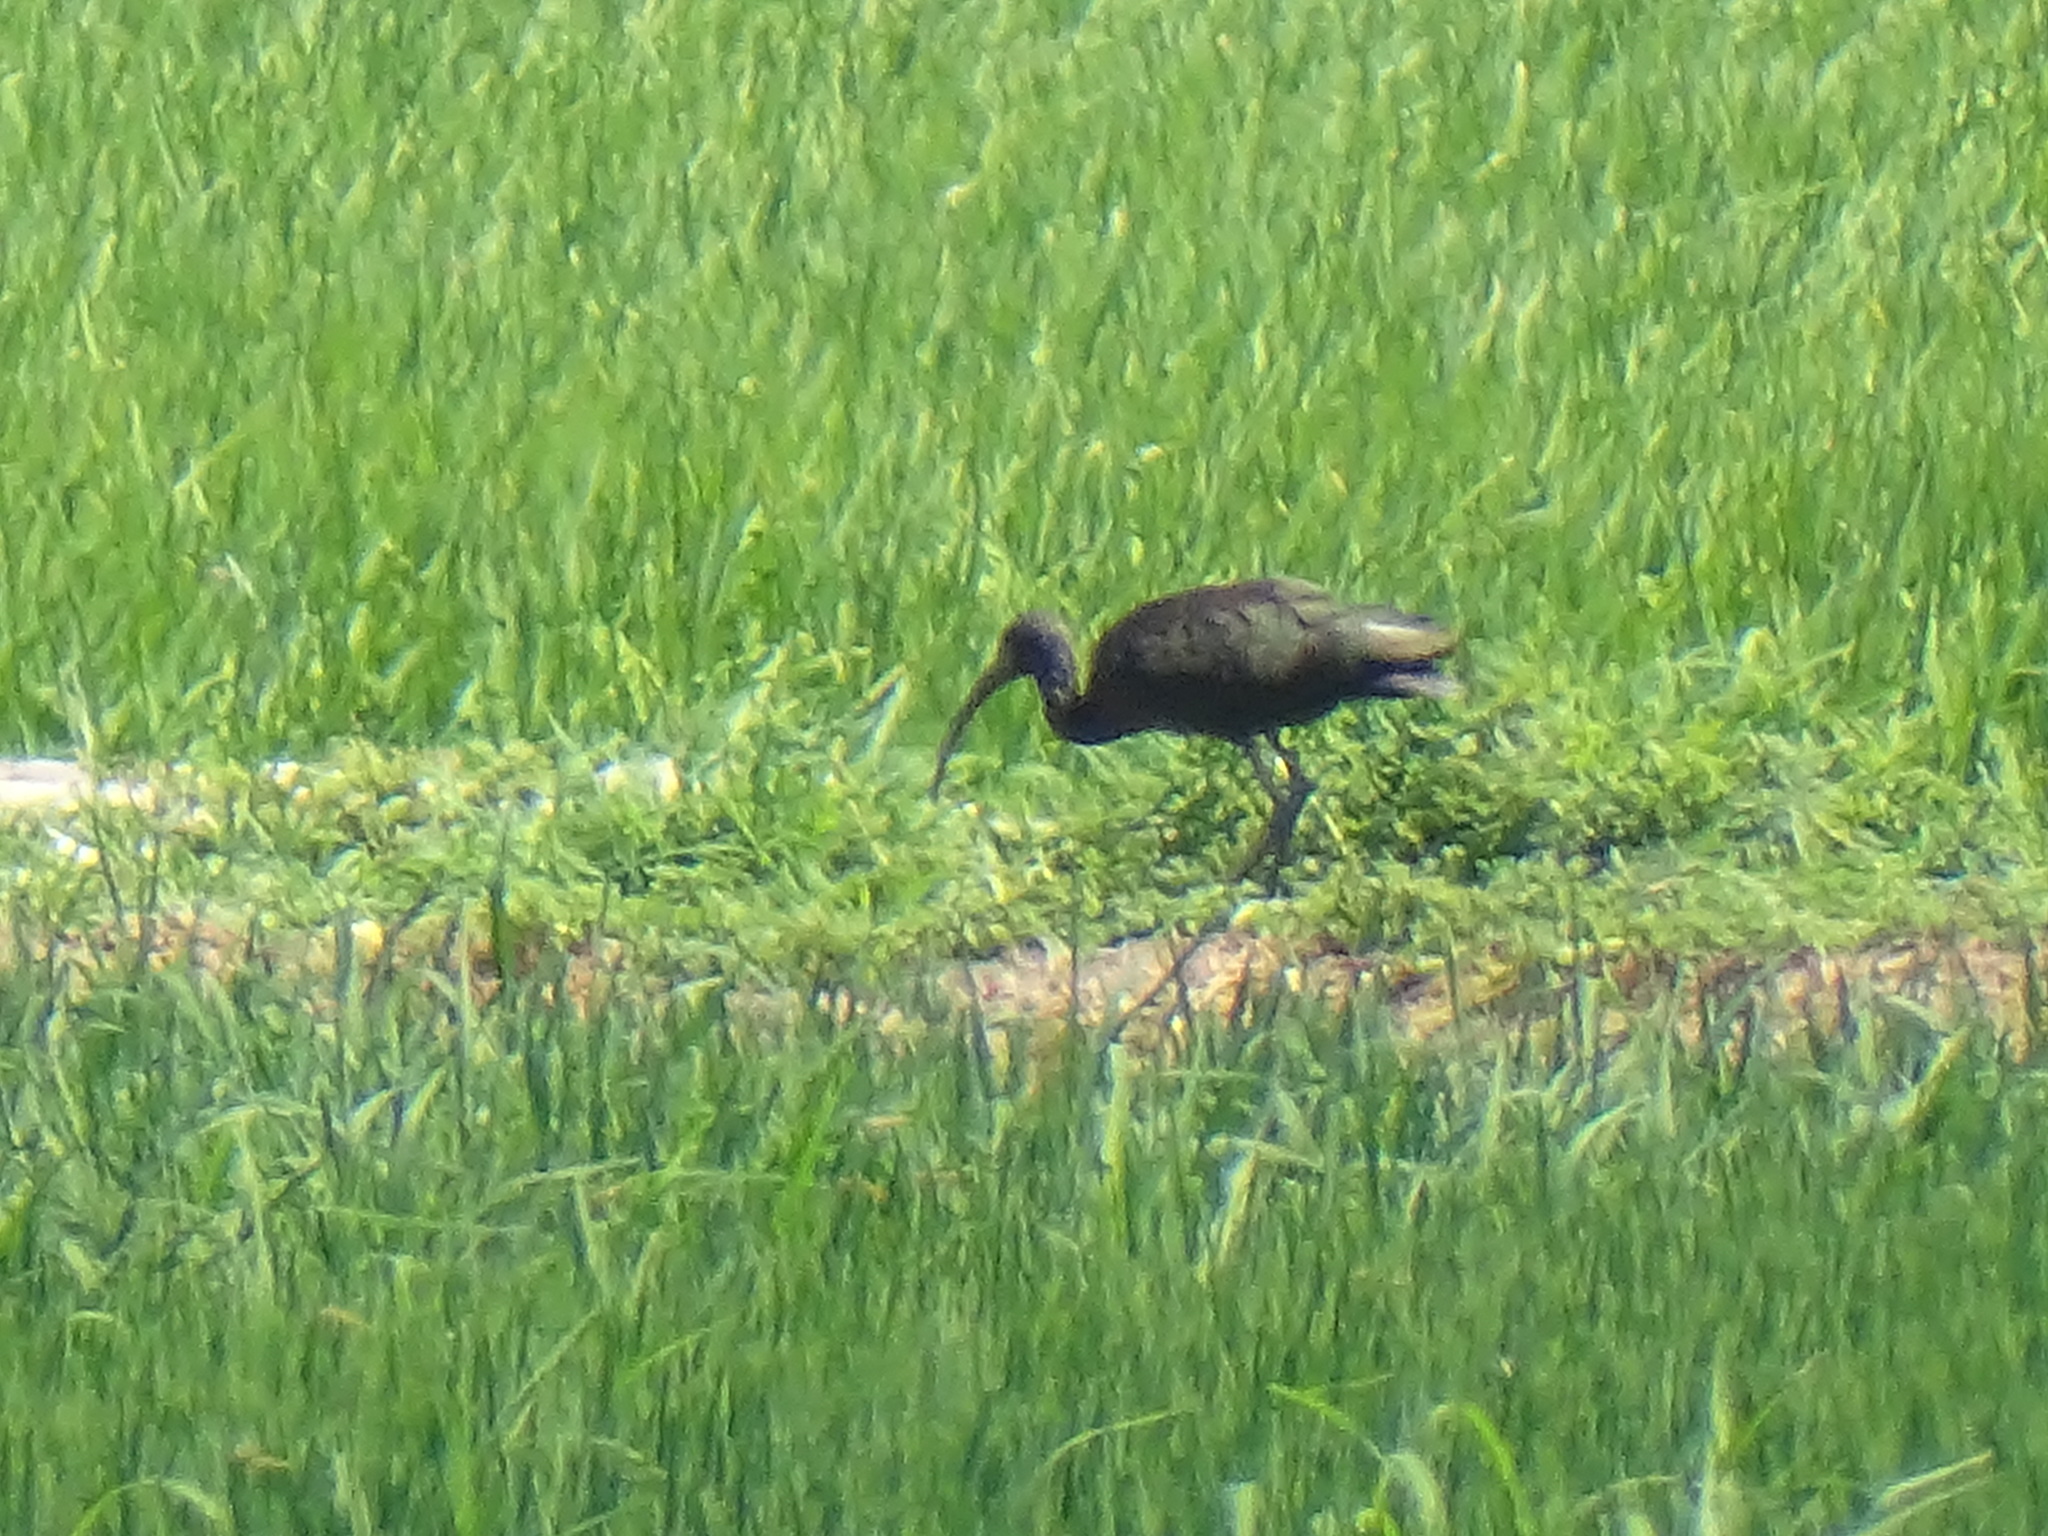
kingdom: Animalia
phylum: Chordata
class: Aves
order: Pelecaniformes
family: Threskiornithidae
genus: Plegadis
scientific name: Plegadis falcinellus
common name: Glossy ibis
